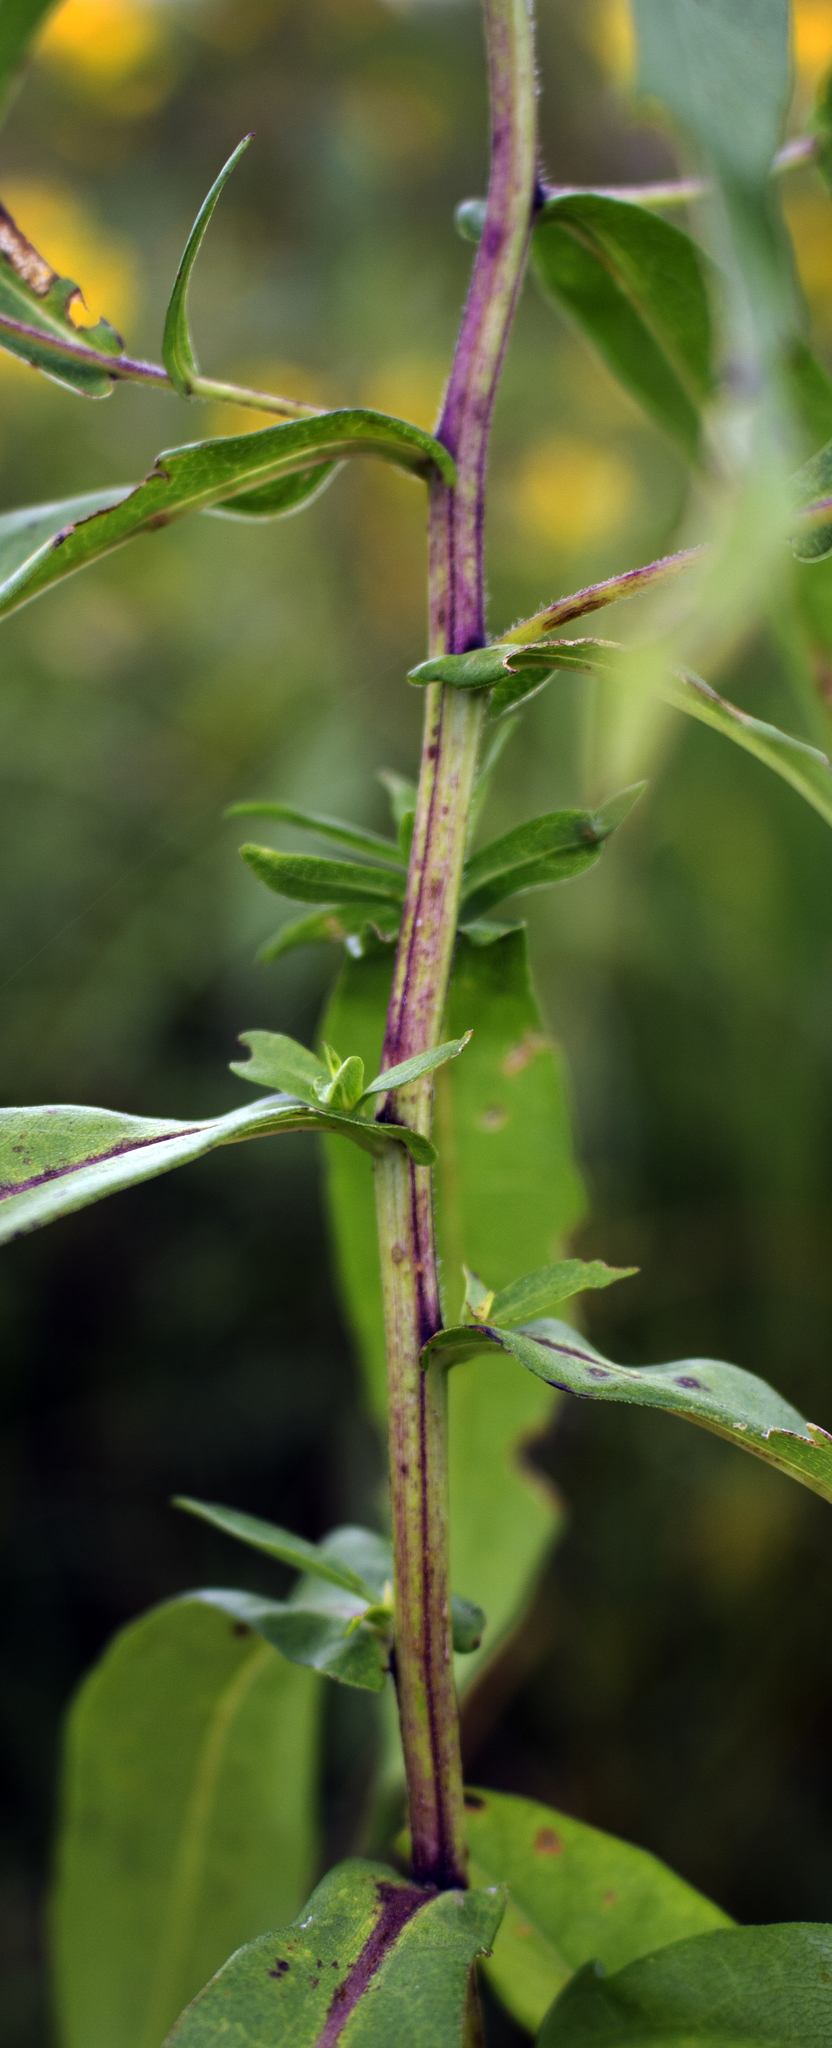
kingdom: Plantae
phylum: Tracheophyta
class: Magnoliopsida
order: Asterales
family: Asteraceae
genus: Symphyotrichum
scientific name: Symphyotrichum firmum
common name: Shining aster
